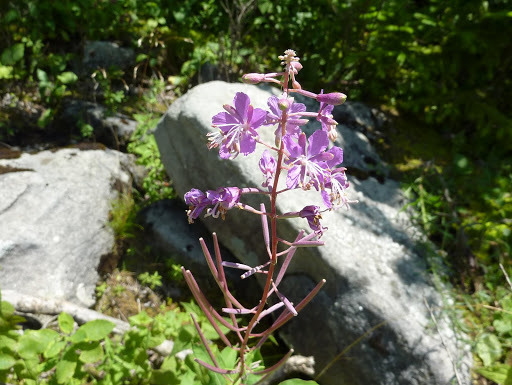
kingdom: Plantae
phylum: Tracheophyta
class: Magnoliopsida
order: Myrtales
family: Onagraceae
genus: Chamaenerion
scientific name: Chamaenerion angustifolium
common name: Fireweed
